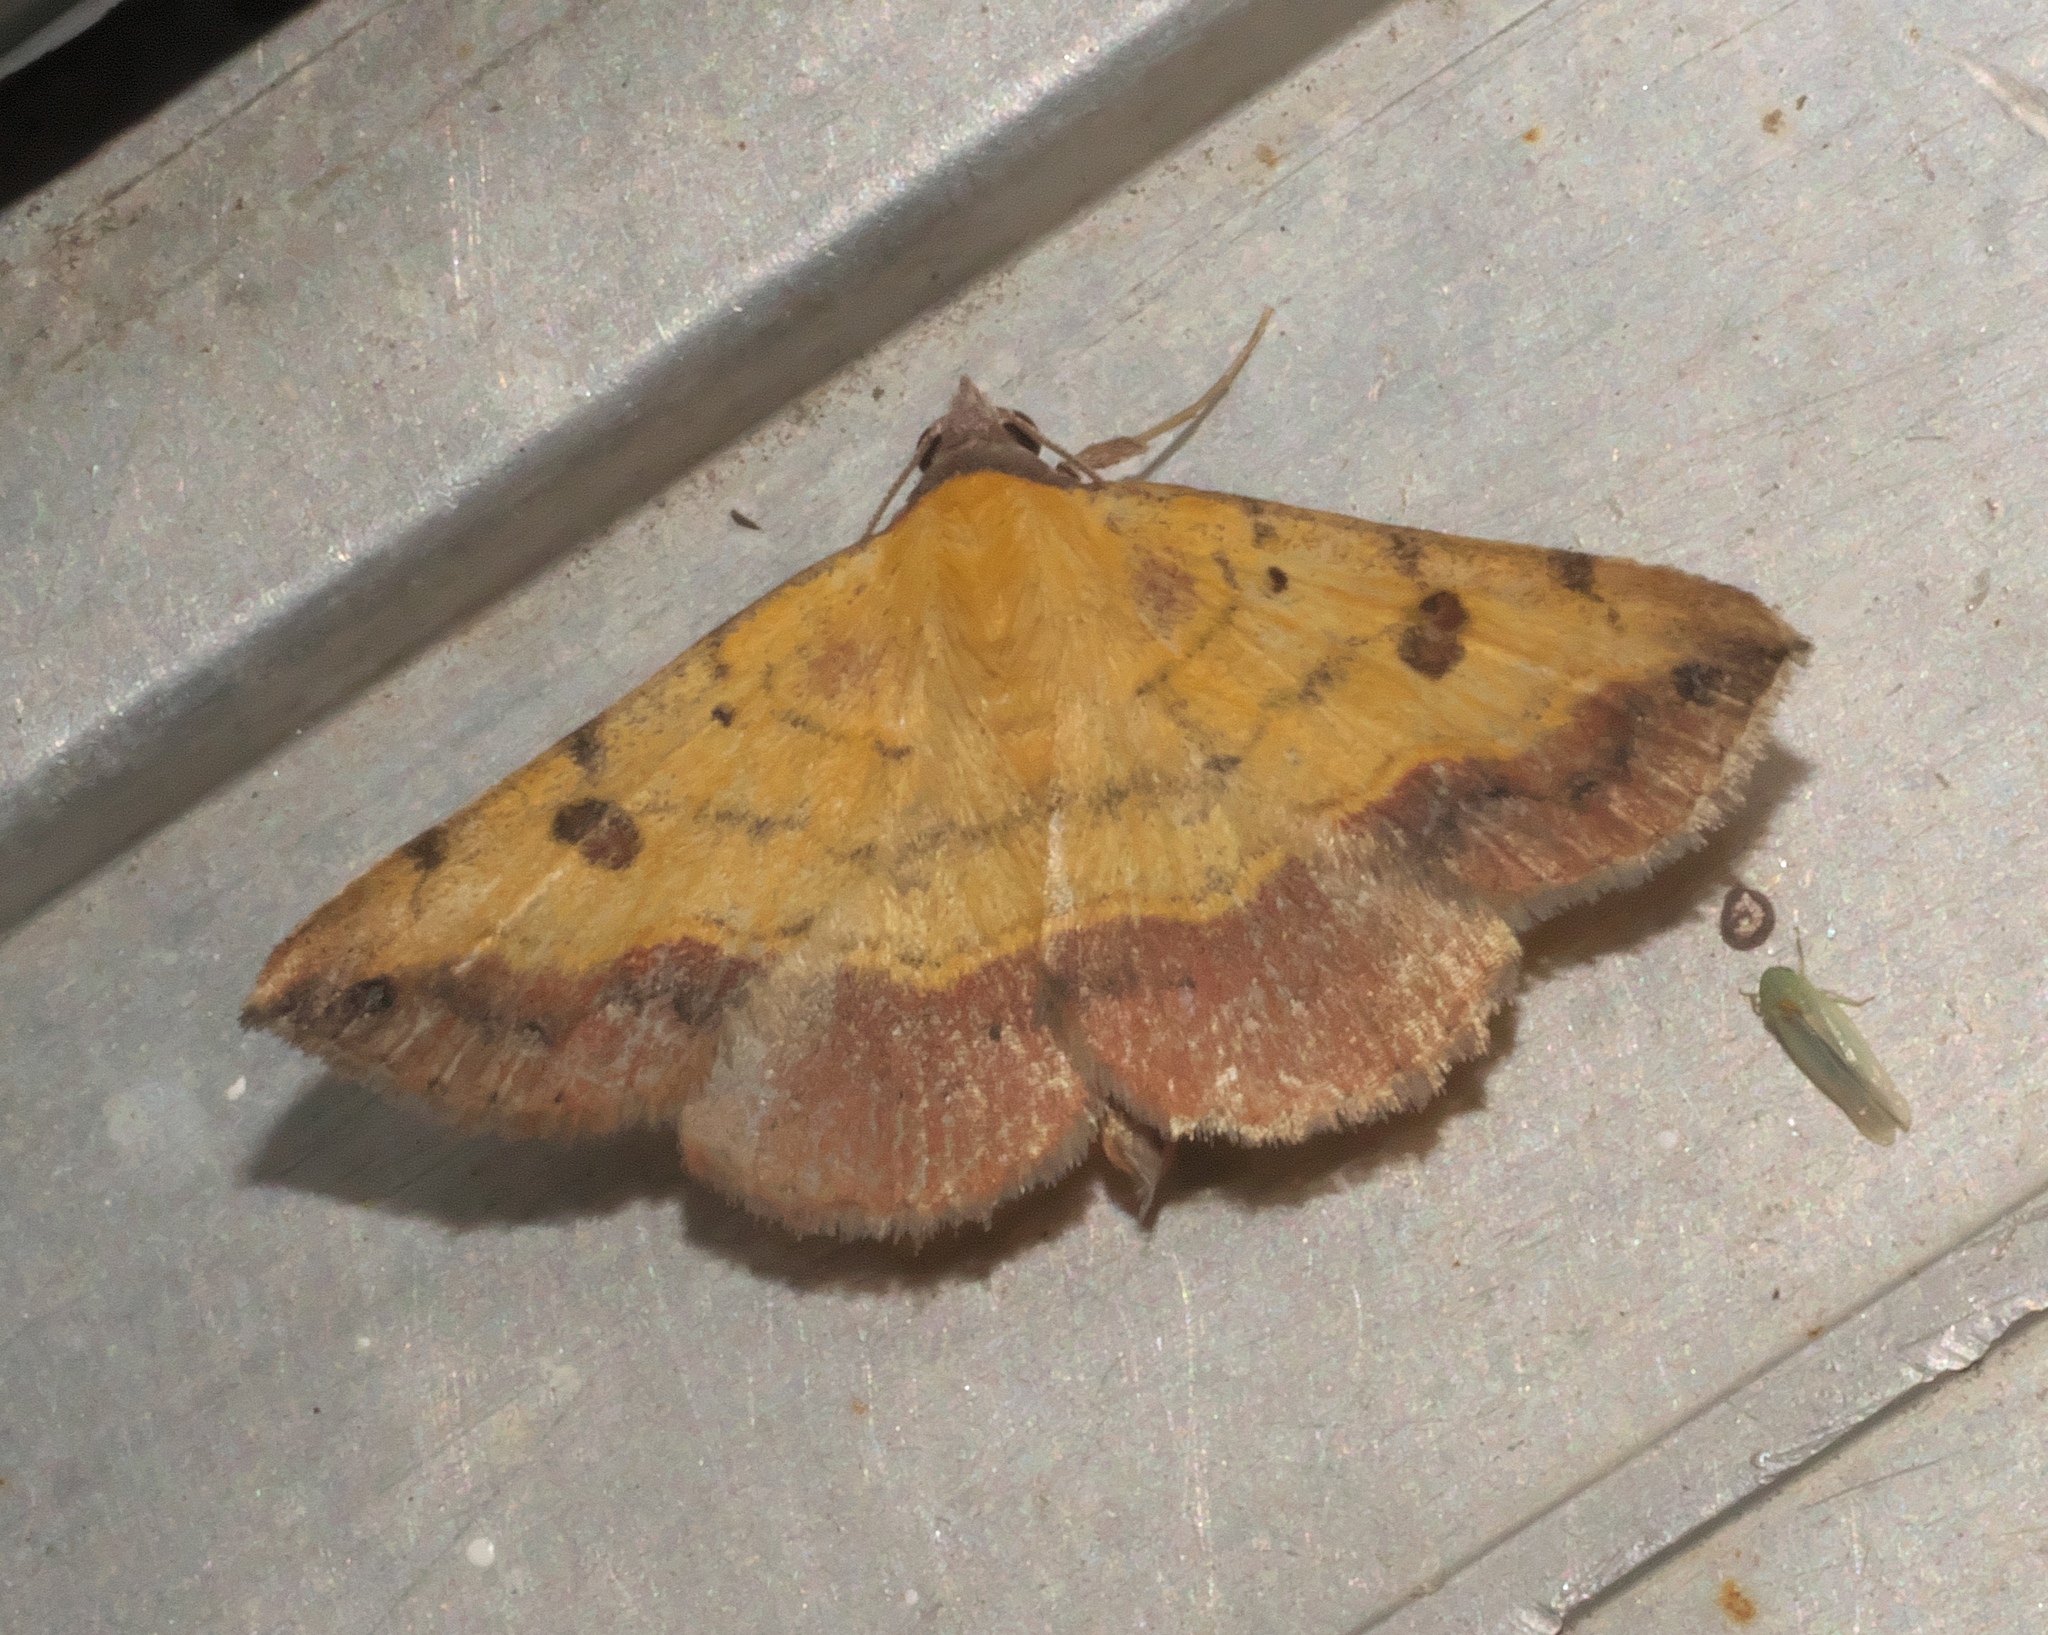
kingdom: Animalia
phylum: Arthropoda
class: Insecta
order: Lepidoptera
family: Erebidae
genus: Hemeroplanis
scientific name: Hemeroplanis scopulepes
